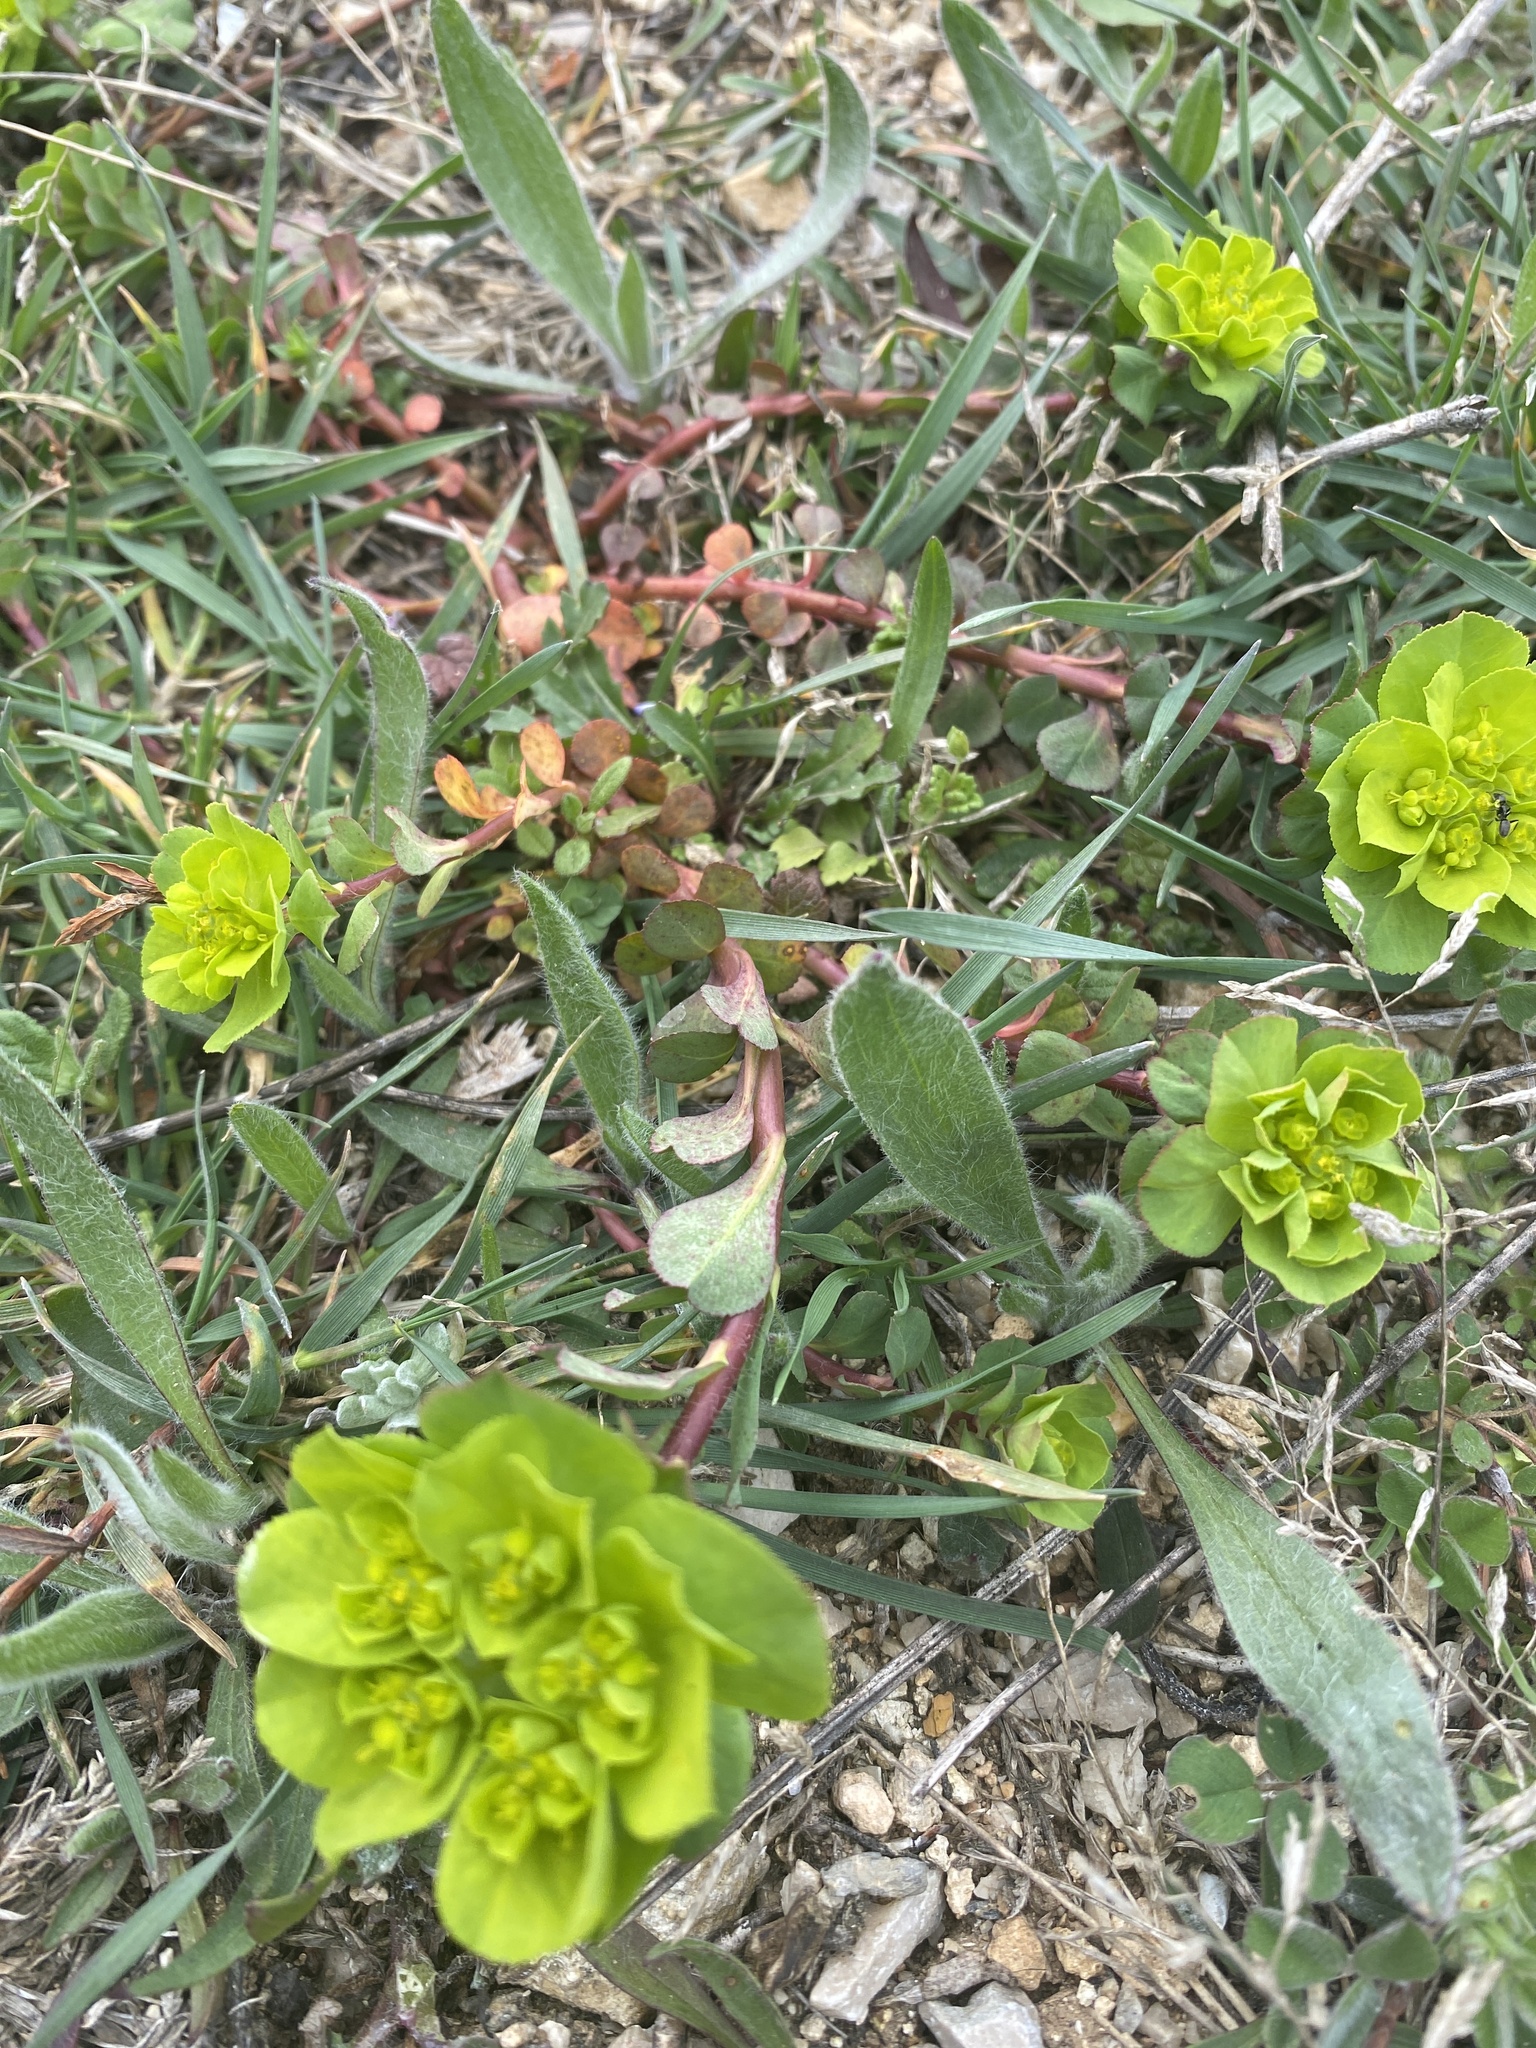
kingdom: Plantae
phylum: Tracheophyta
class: Magnoliopsida
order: Malpighiales
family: Euphorbiaceae
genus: Euphorbia
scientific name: Euphorbia helioscopia
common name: Sun spurge
